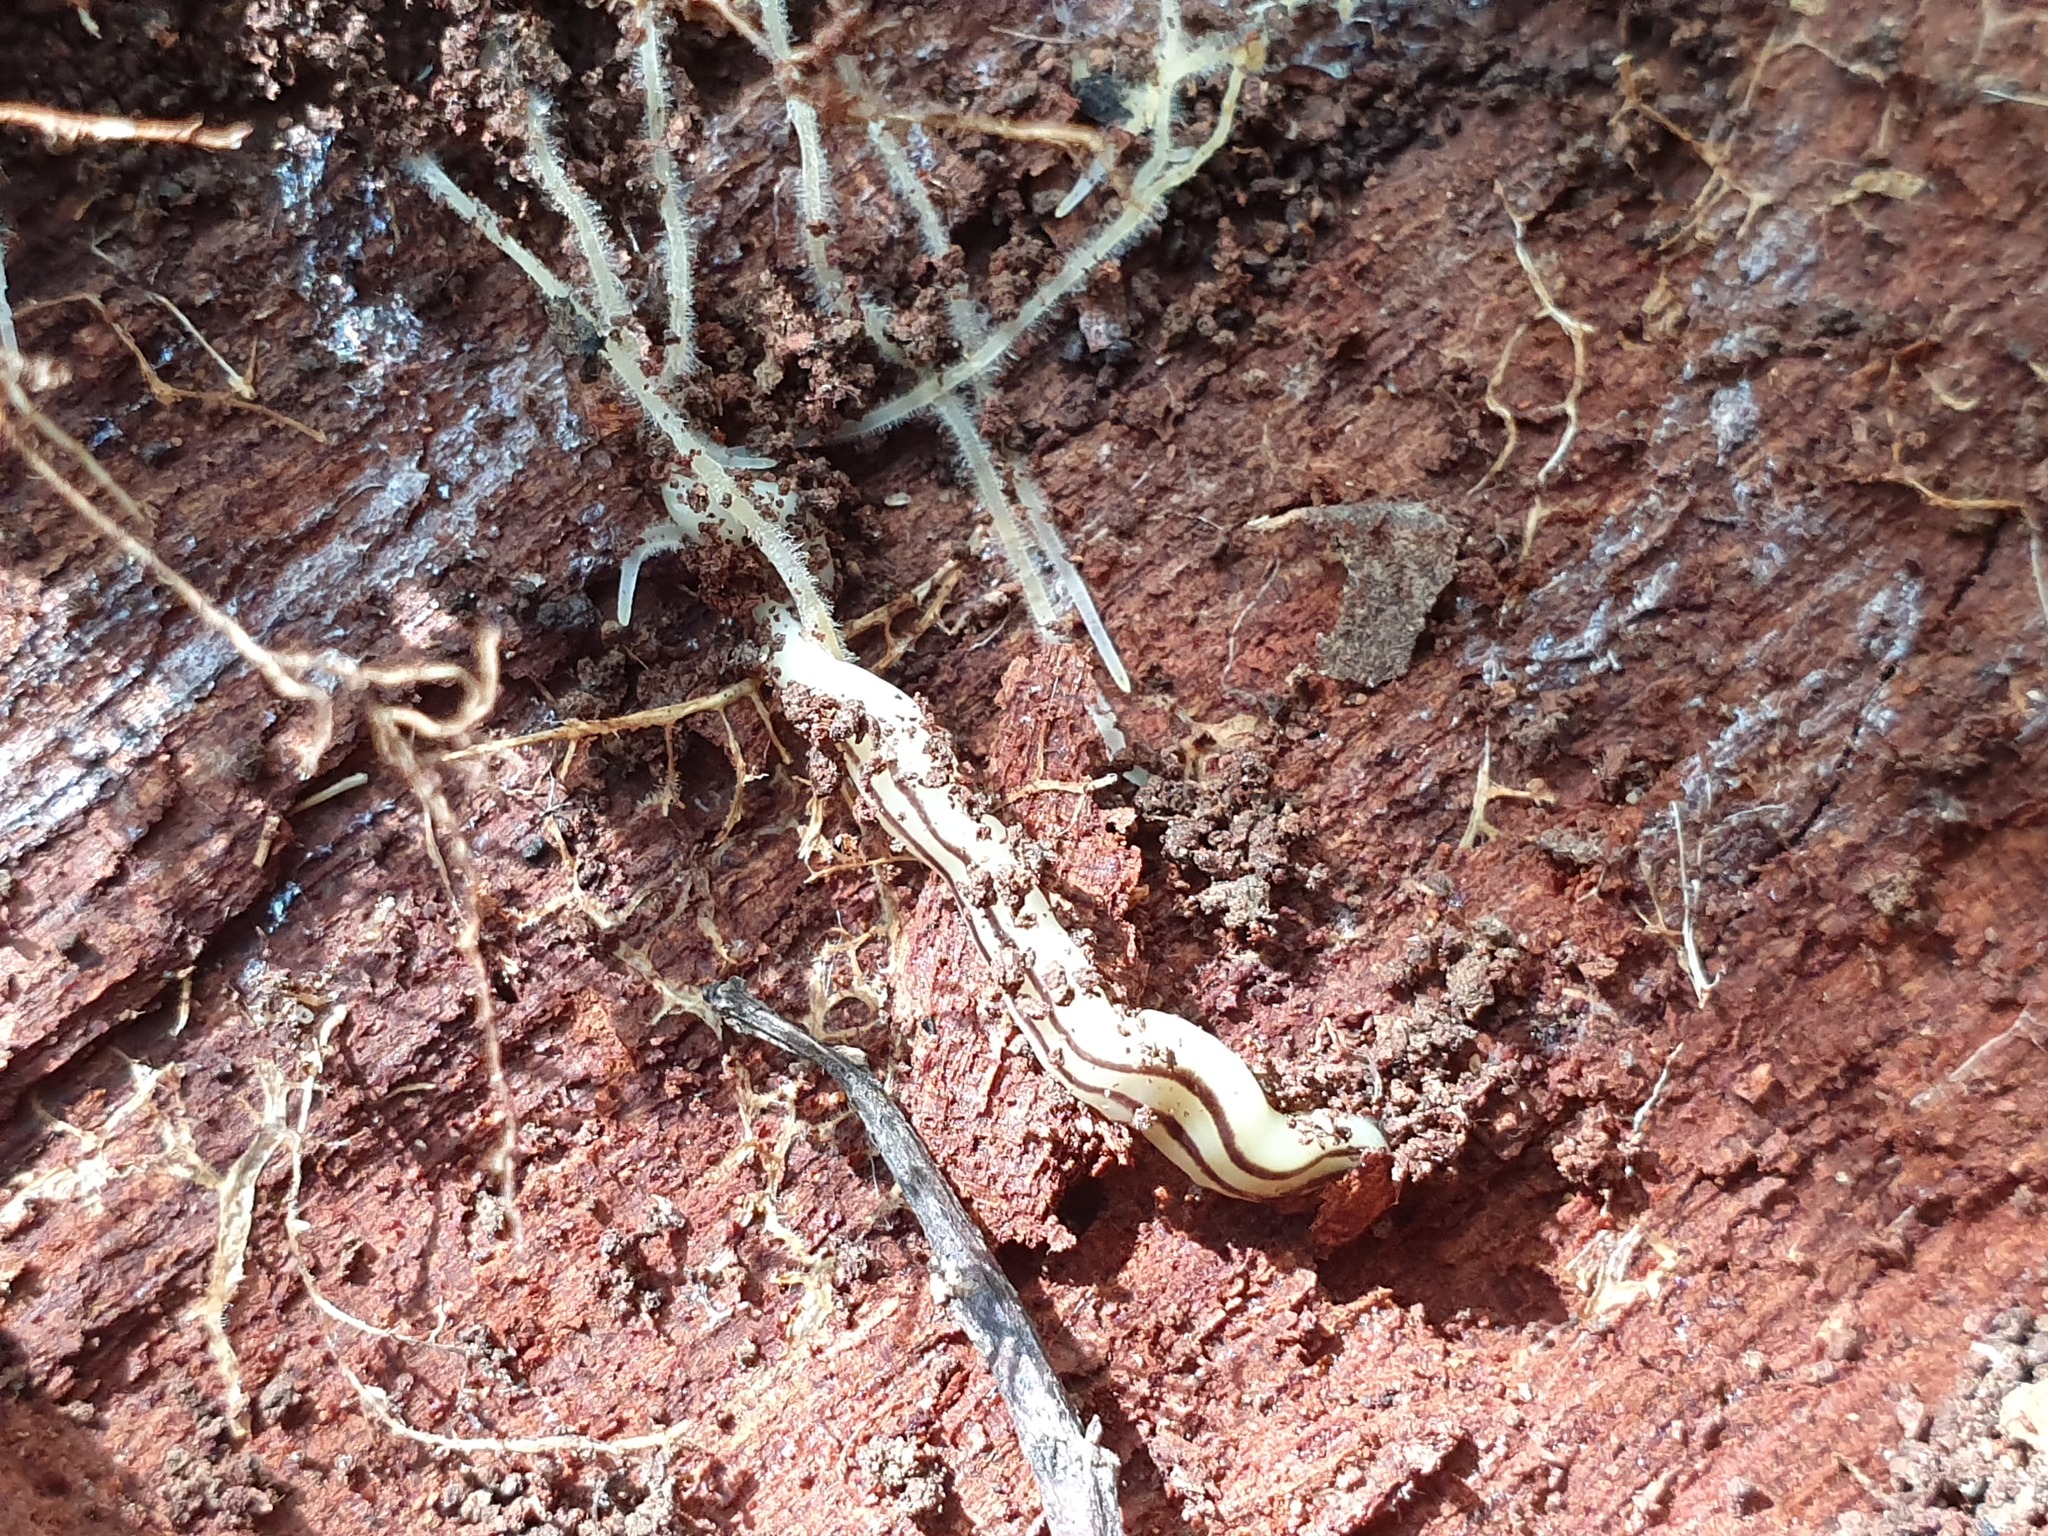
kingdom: Animalia
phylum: Platyhelminthes
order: Tricladida
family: Geoplanidae
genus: Fletchamia
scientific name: Fletchamia mmahoni
